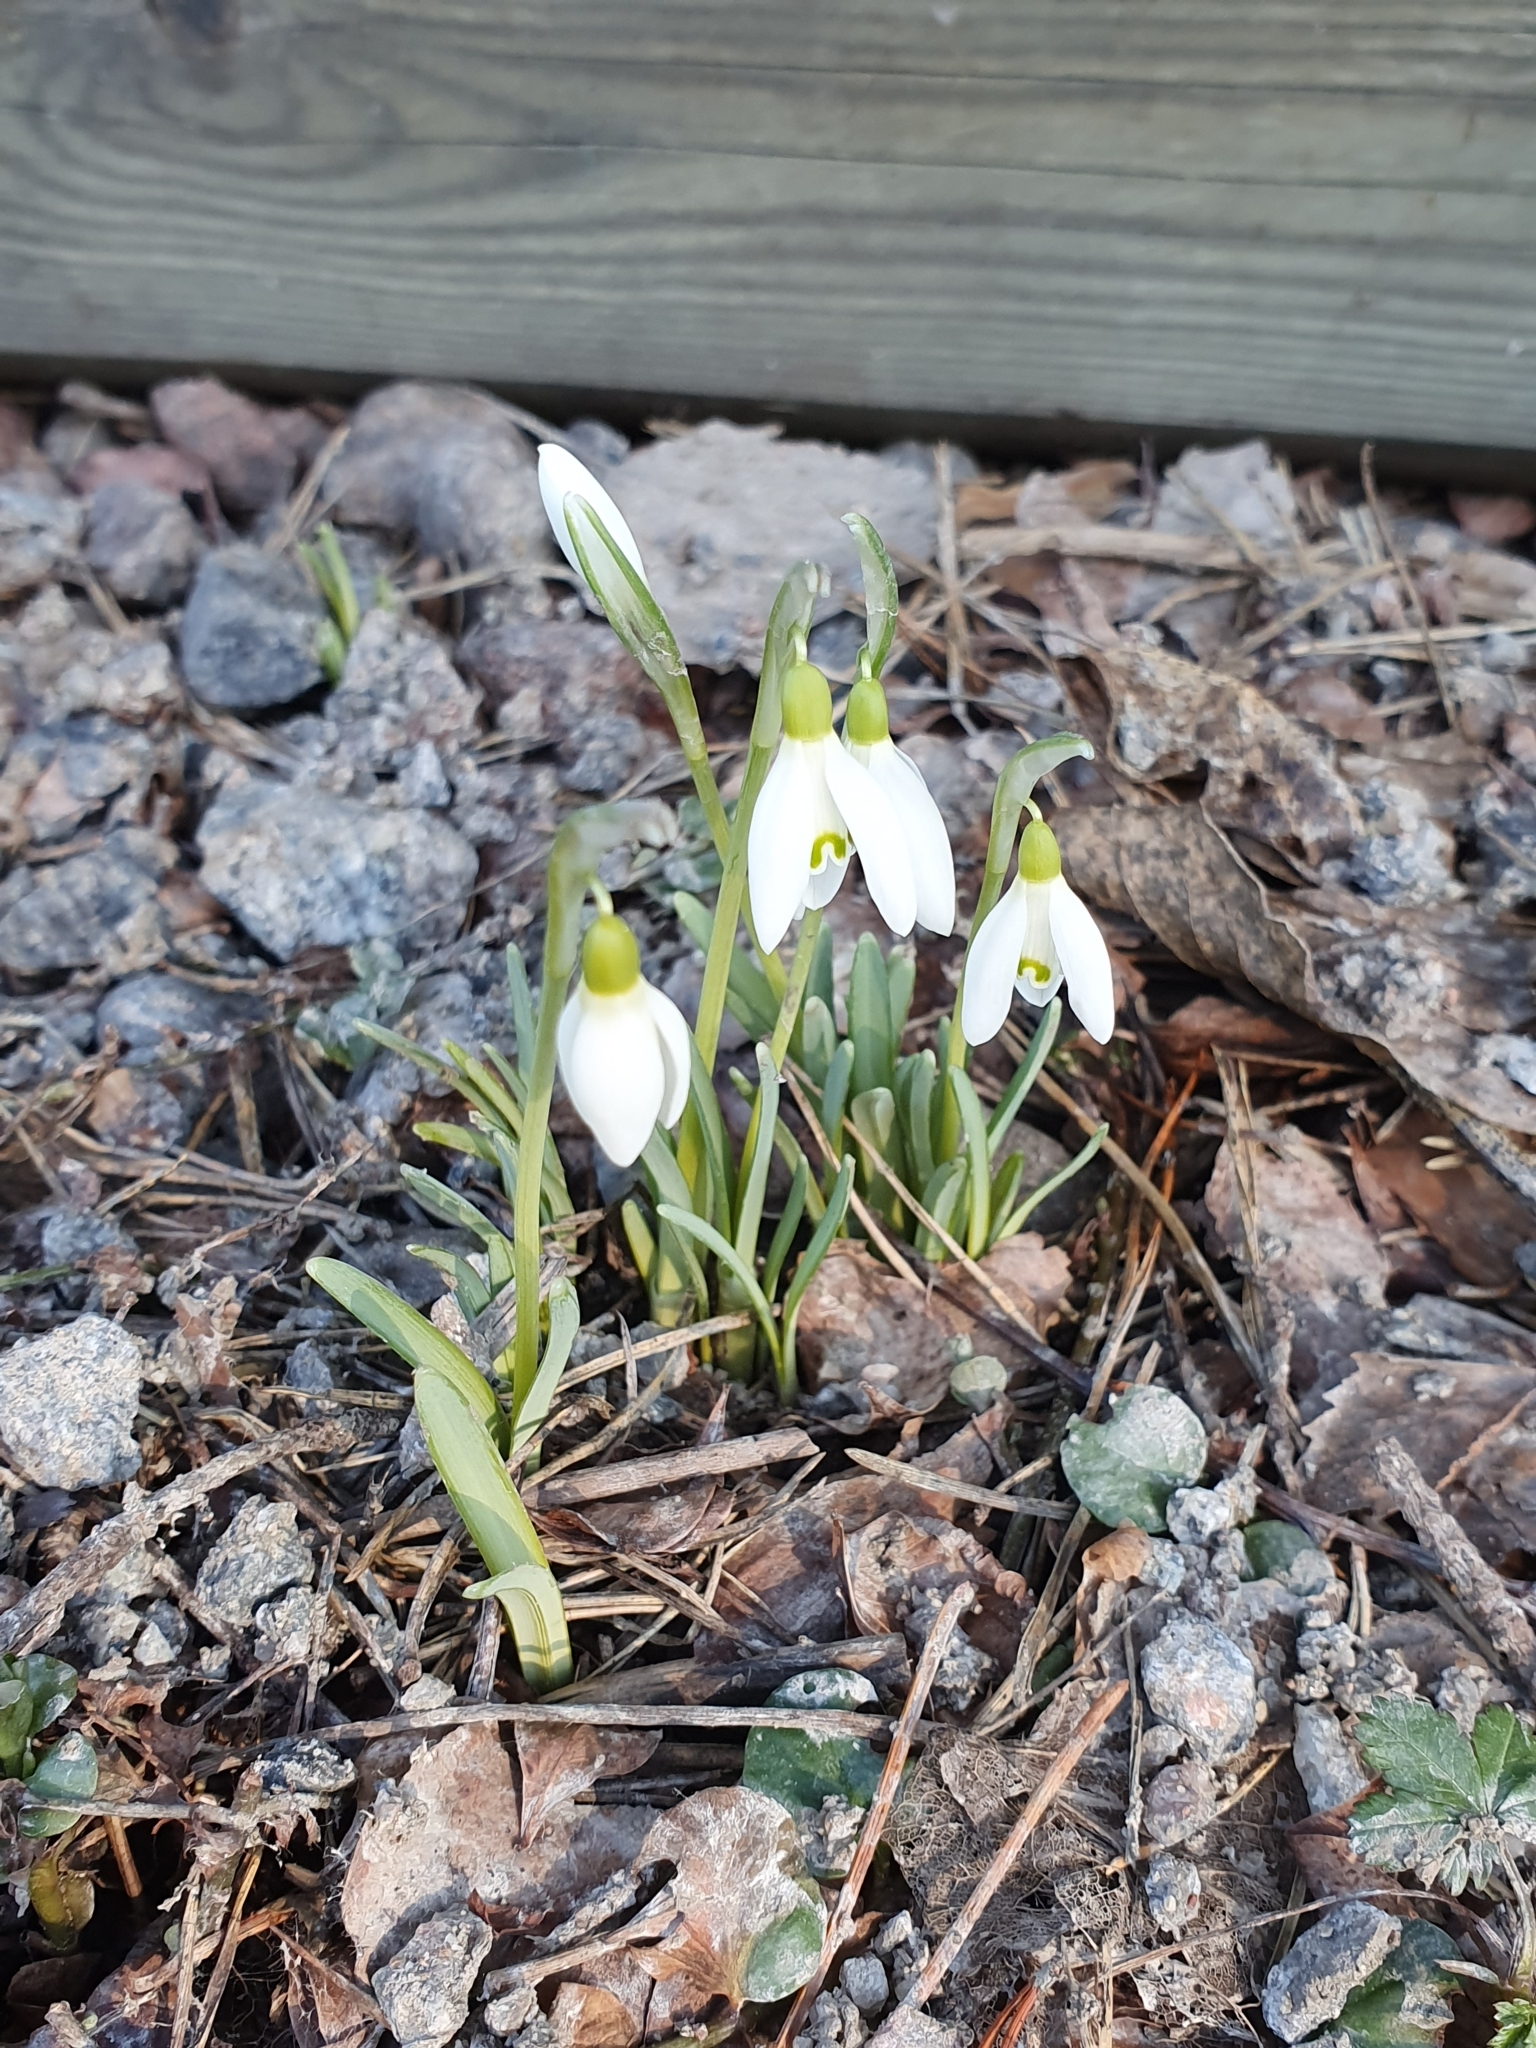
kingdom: Plantae
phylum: Tracheophyta
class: Liliopsida
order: Asparagales
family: Amaryllidaceae
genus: Galanthus
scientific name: Galanthus nivalis
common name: Snowdrop
